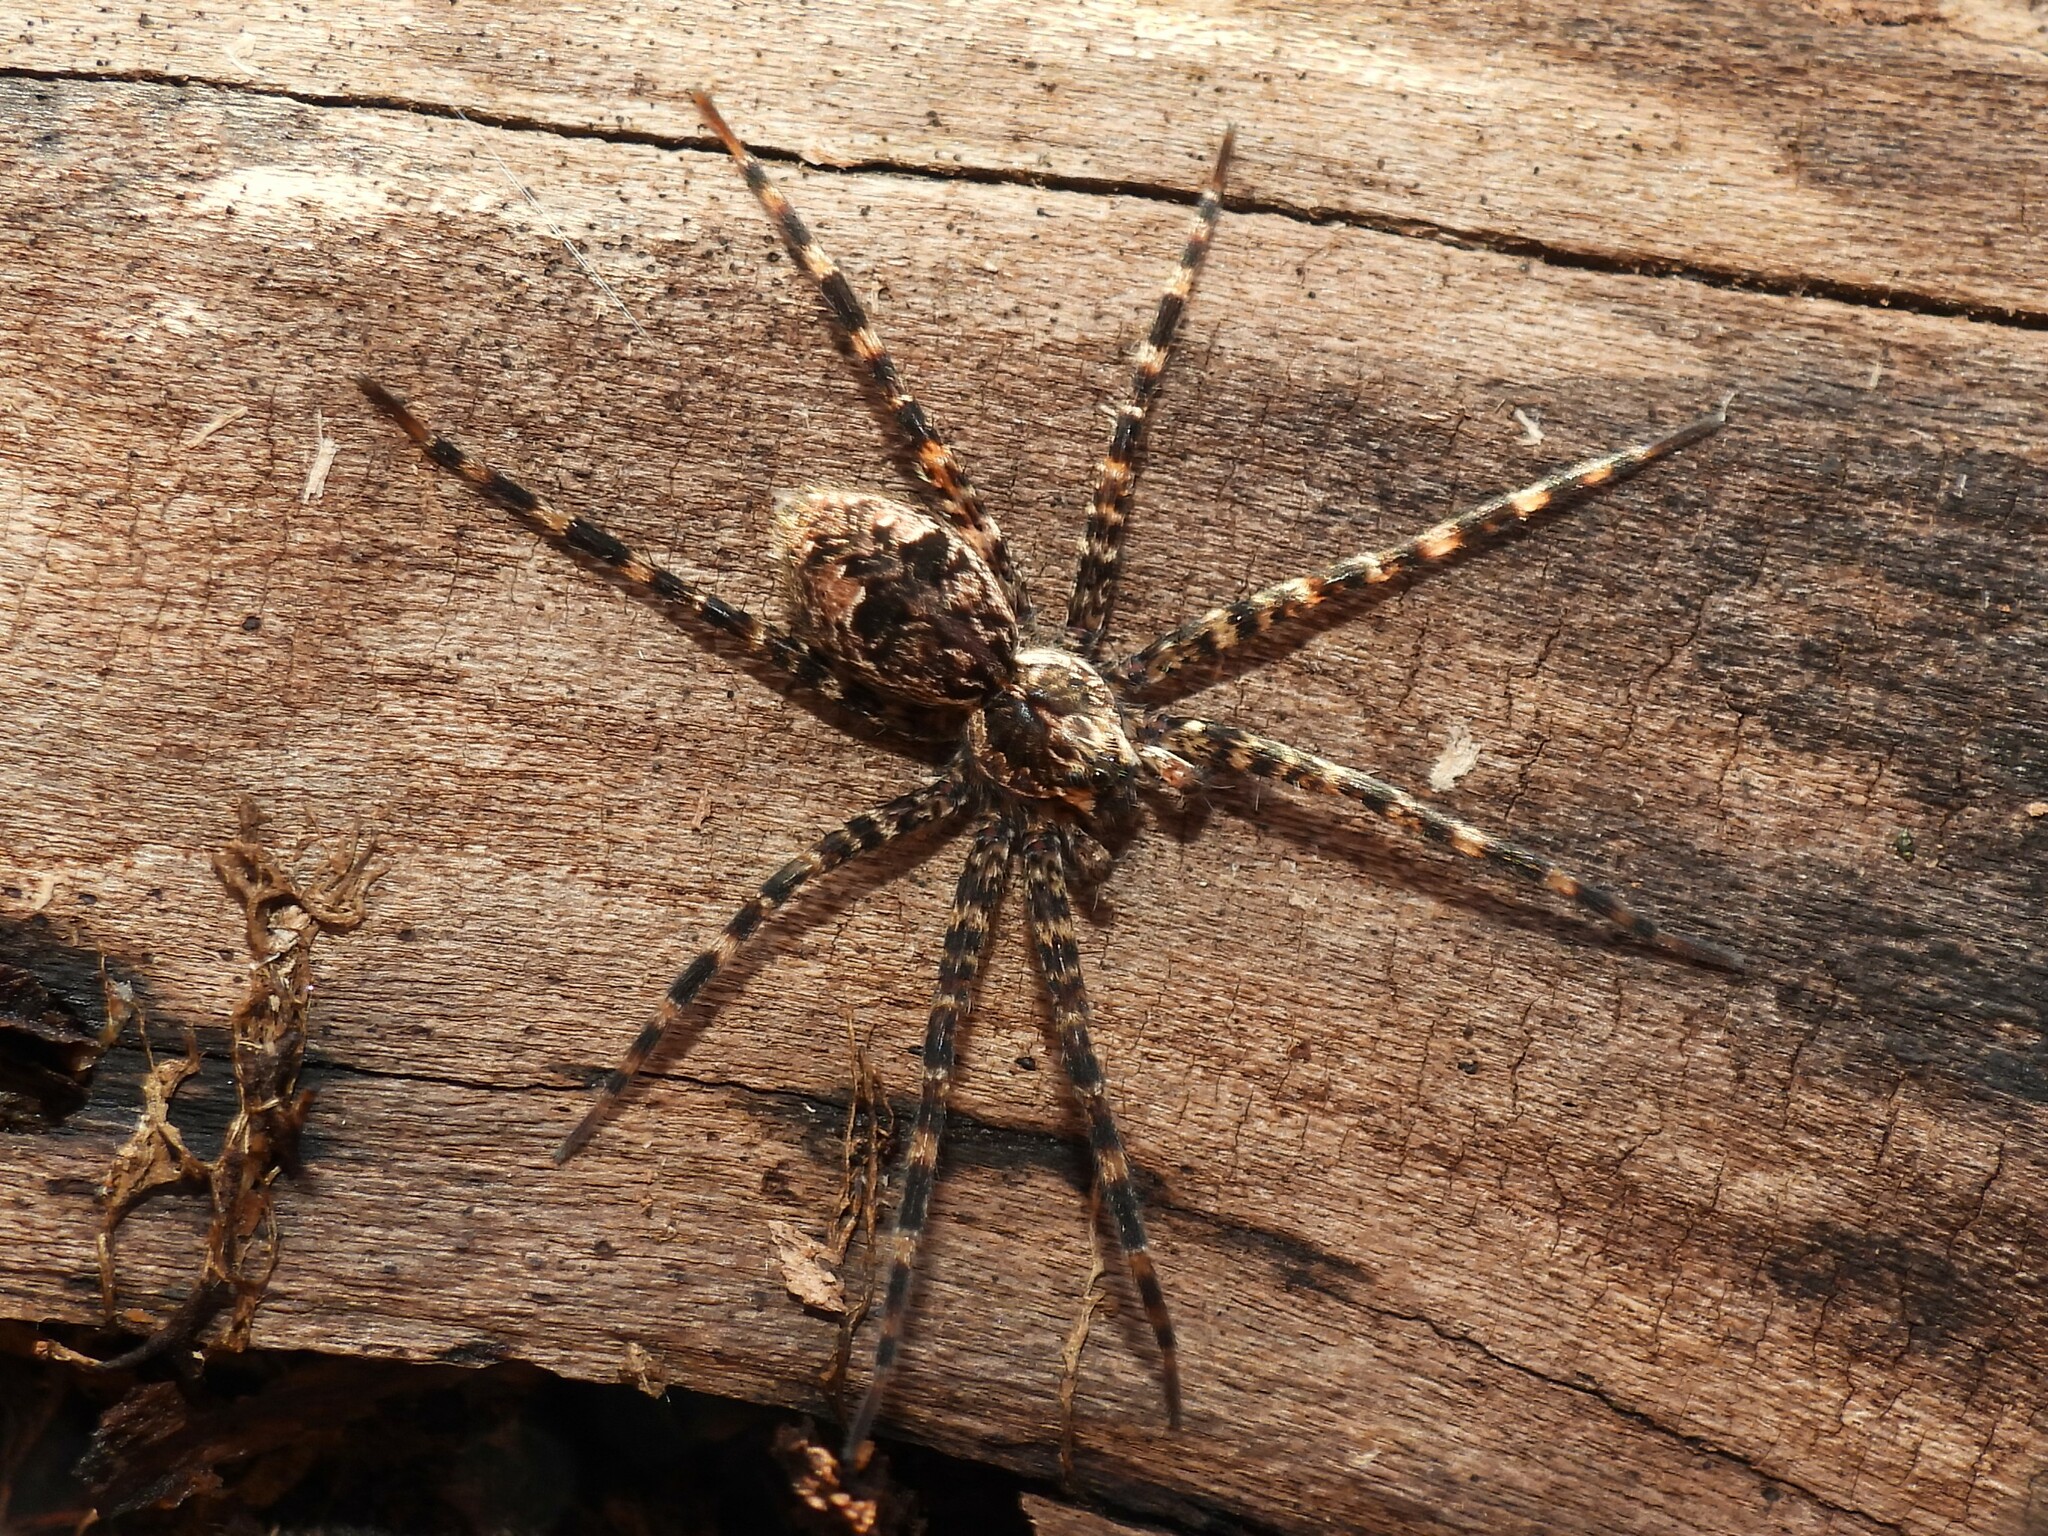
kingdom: Animalia
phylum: Arthropoda
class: Arachnida
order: Araneae
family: Pisauridae
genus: Dolomedes
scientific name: Dolomedes tenebrosus
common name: Dark fishing spider
